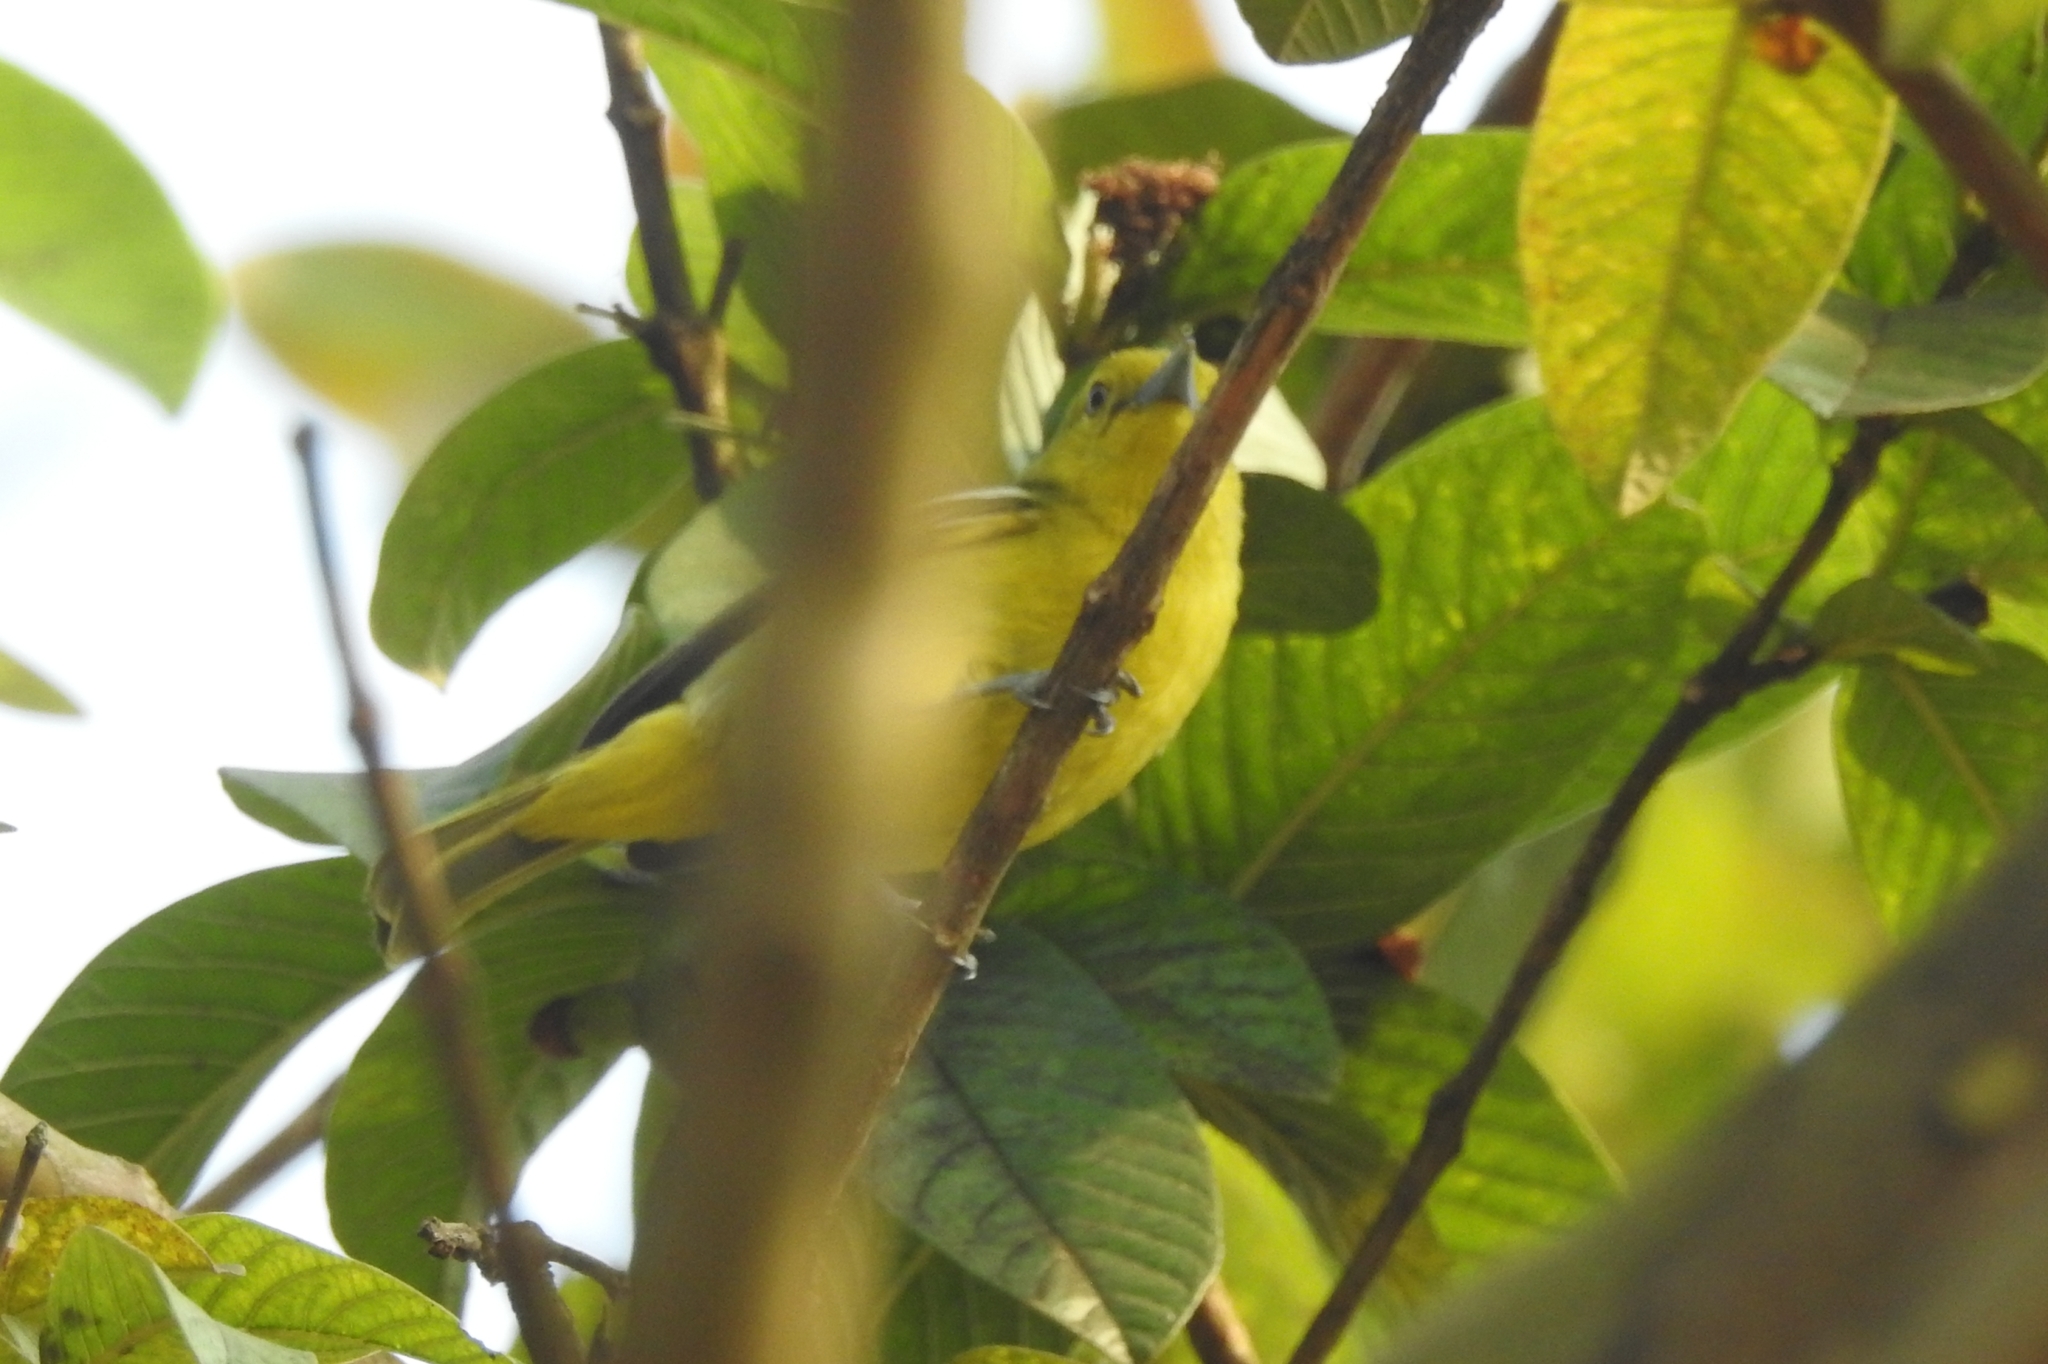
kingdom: Animalia
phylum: Chordata
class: Aves
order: Passeriformes
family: Aegithinidae
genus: Aegithina
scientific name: Aegithina tiphia
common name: Common iora
